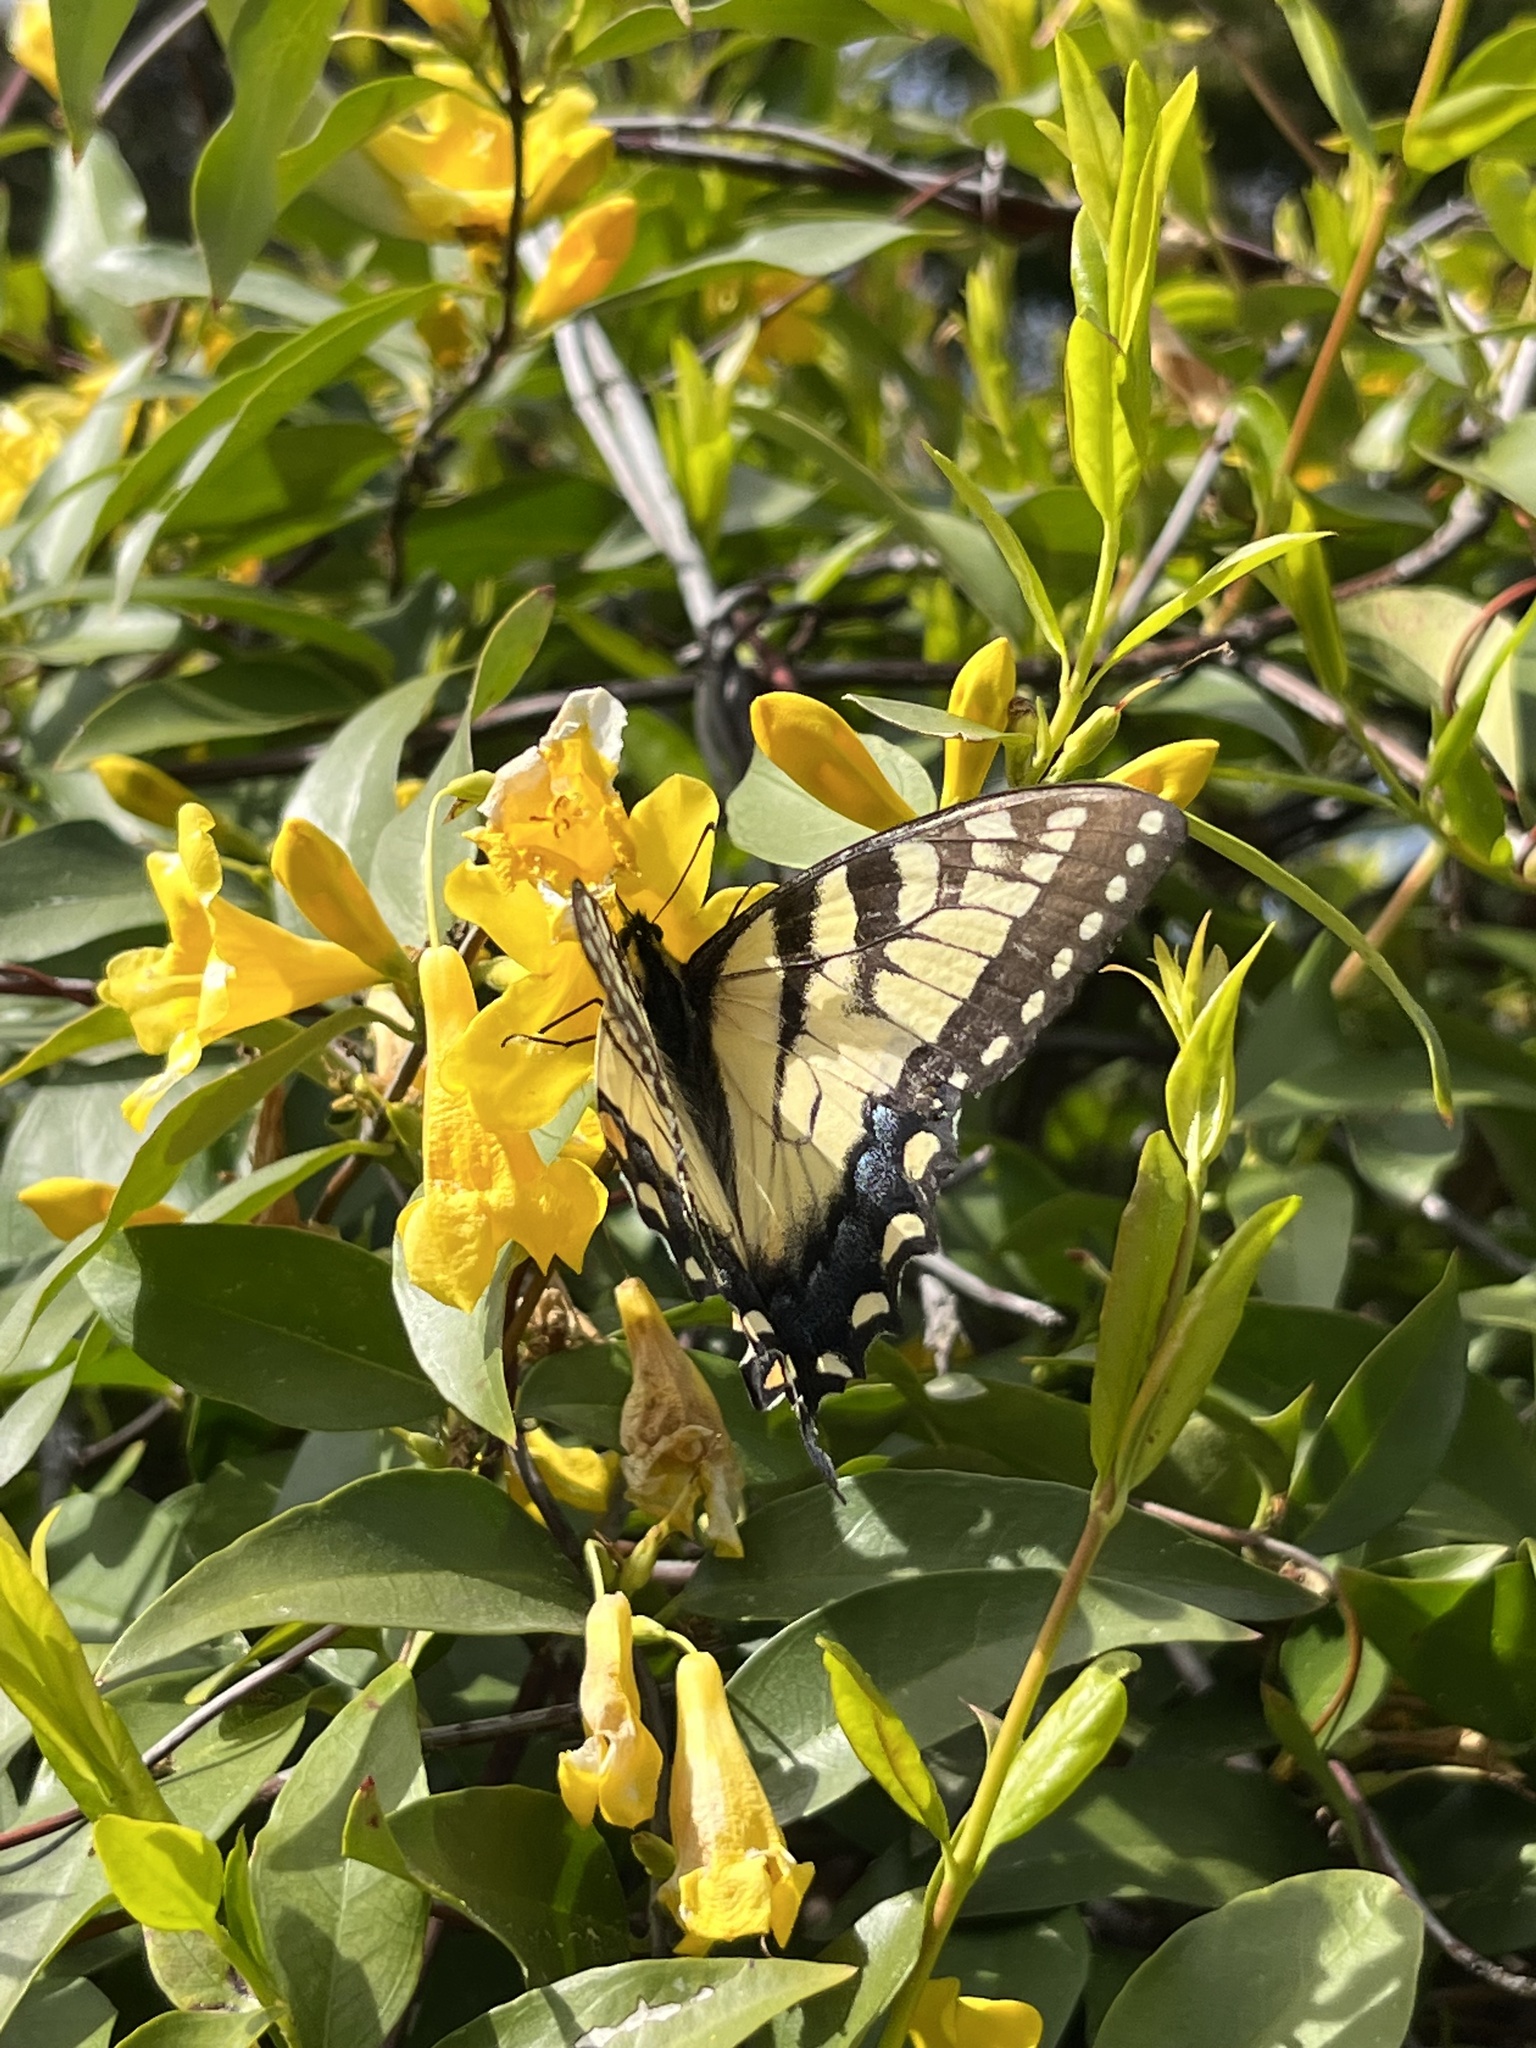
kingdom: Animalia
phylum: Arthropoda
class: Insecta
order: Lepidoptera
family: Papilionidae
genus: Papilio
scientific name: Papilio glaucus
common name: Tiger swallowtail
